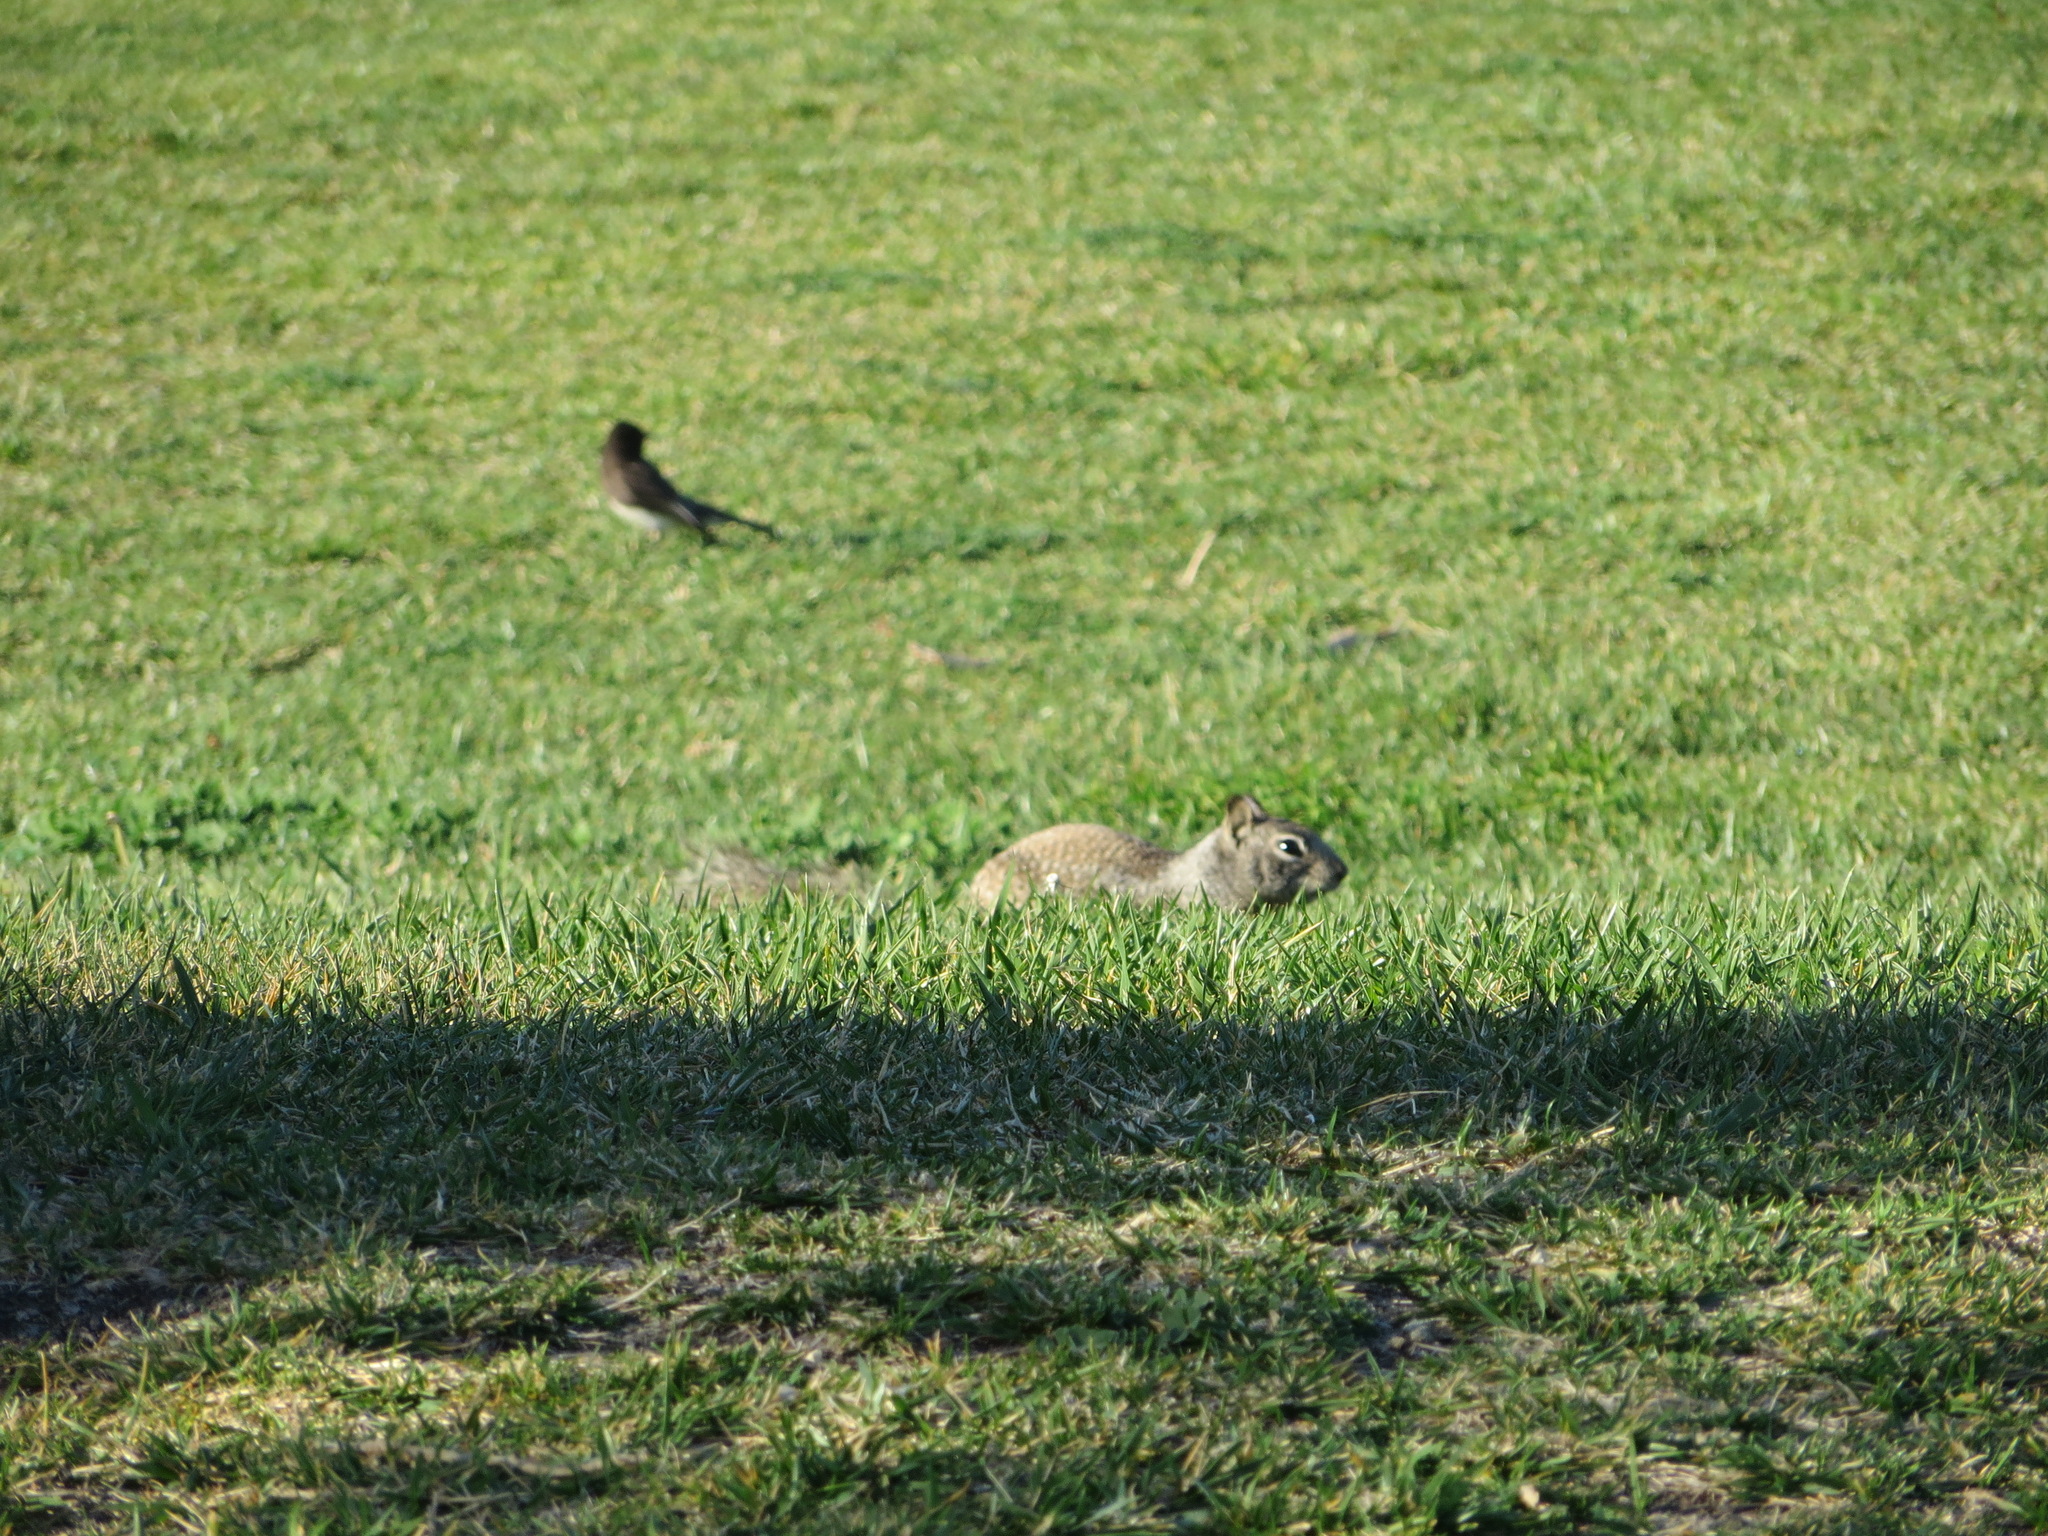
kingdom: Animalia
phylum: Chordata
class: Mammalia
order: Rodentia
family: Sciuridae
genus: Otospermophilus
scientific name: Otospermophilus beecheyi
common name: California ground squirrel
